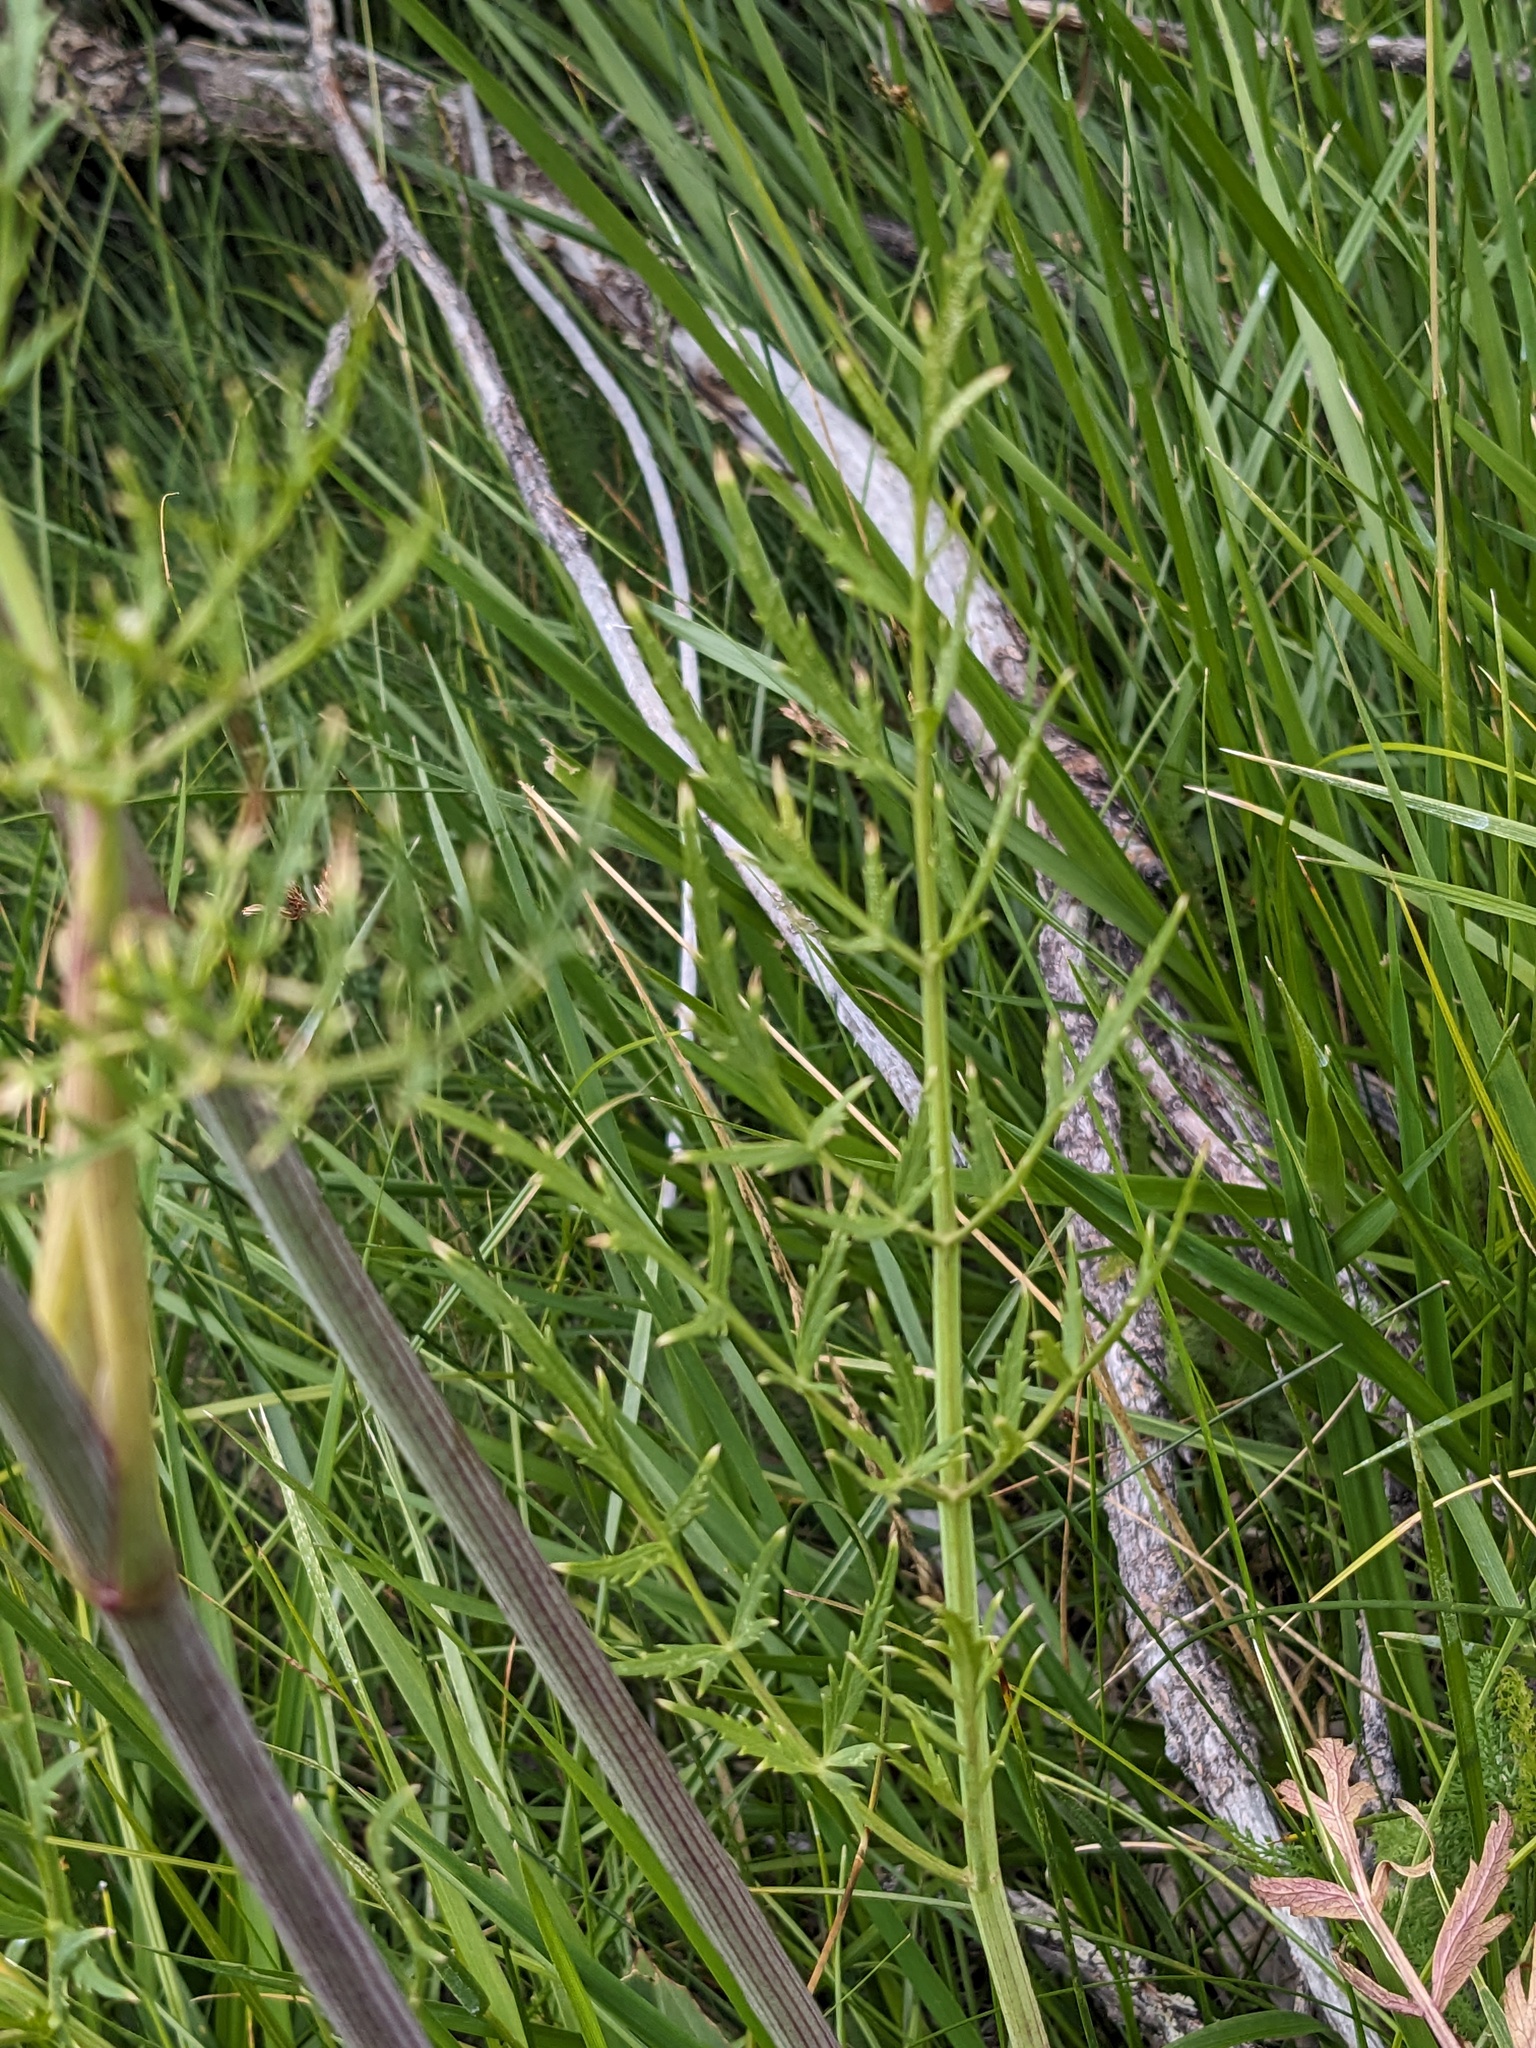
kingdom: Plantae
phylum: Tracheophyta
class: Magnoliopsida
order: Apiales
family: Apiaceae
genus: Angelica
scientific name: Angelica capitellata
